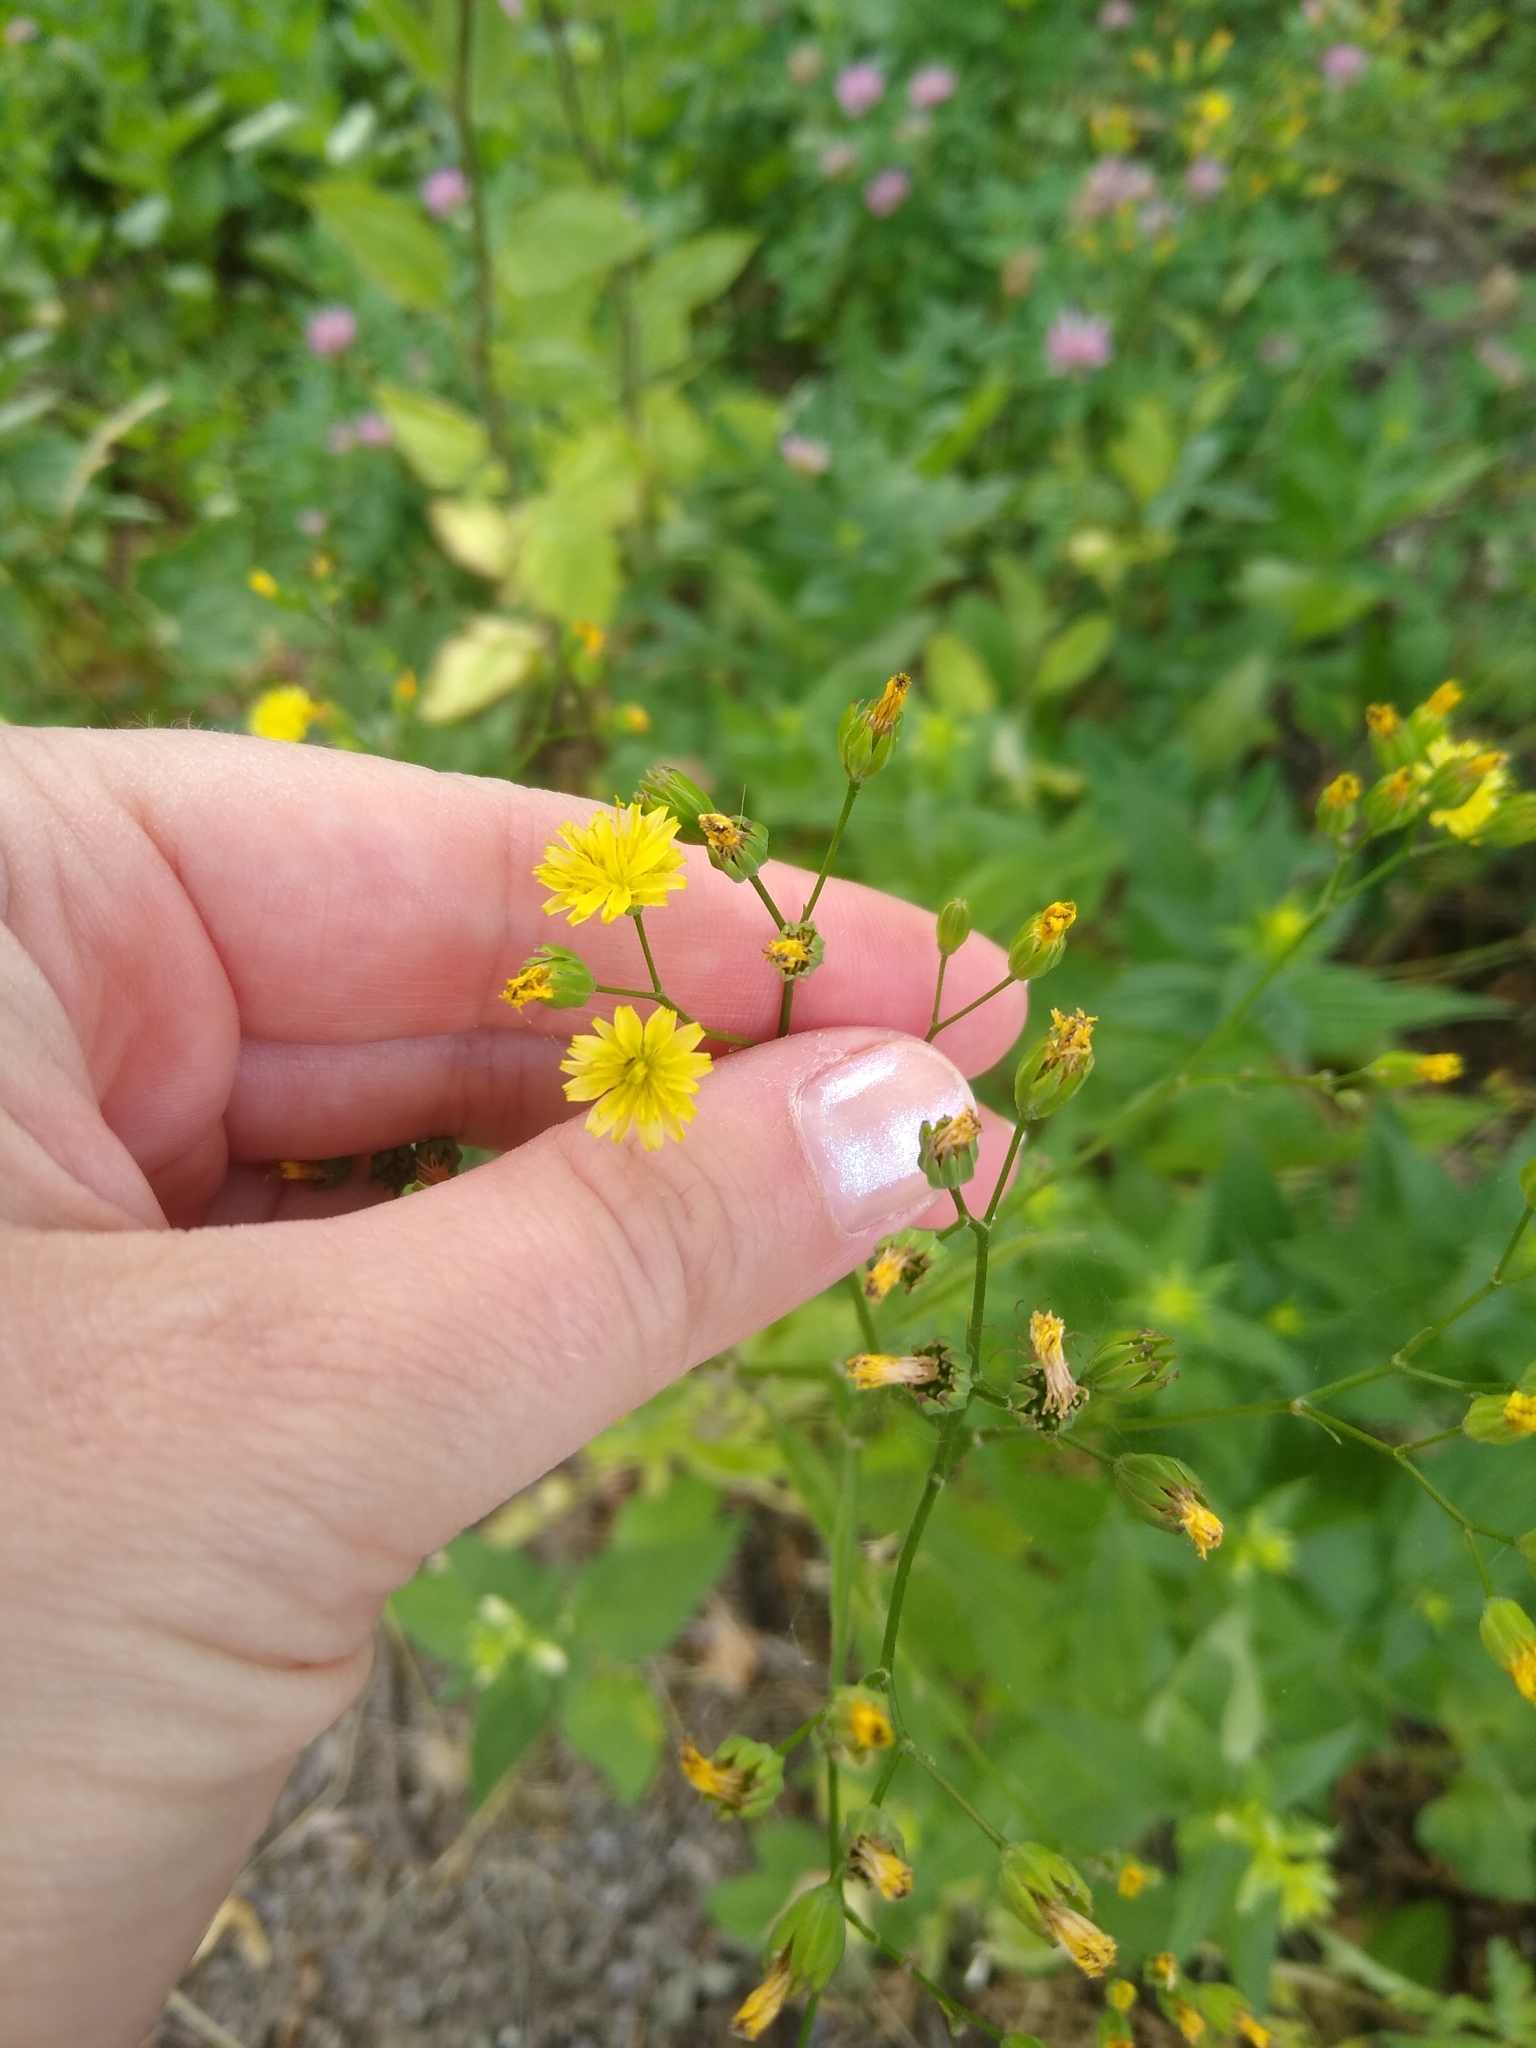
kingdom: Plantae
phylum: Tracheophyta
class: Magnoliopsida
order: Asterales
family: Asteraceae
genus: Lapsana
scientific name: Lapsana communis
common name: Nipplewort
